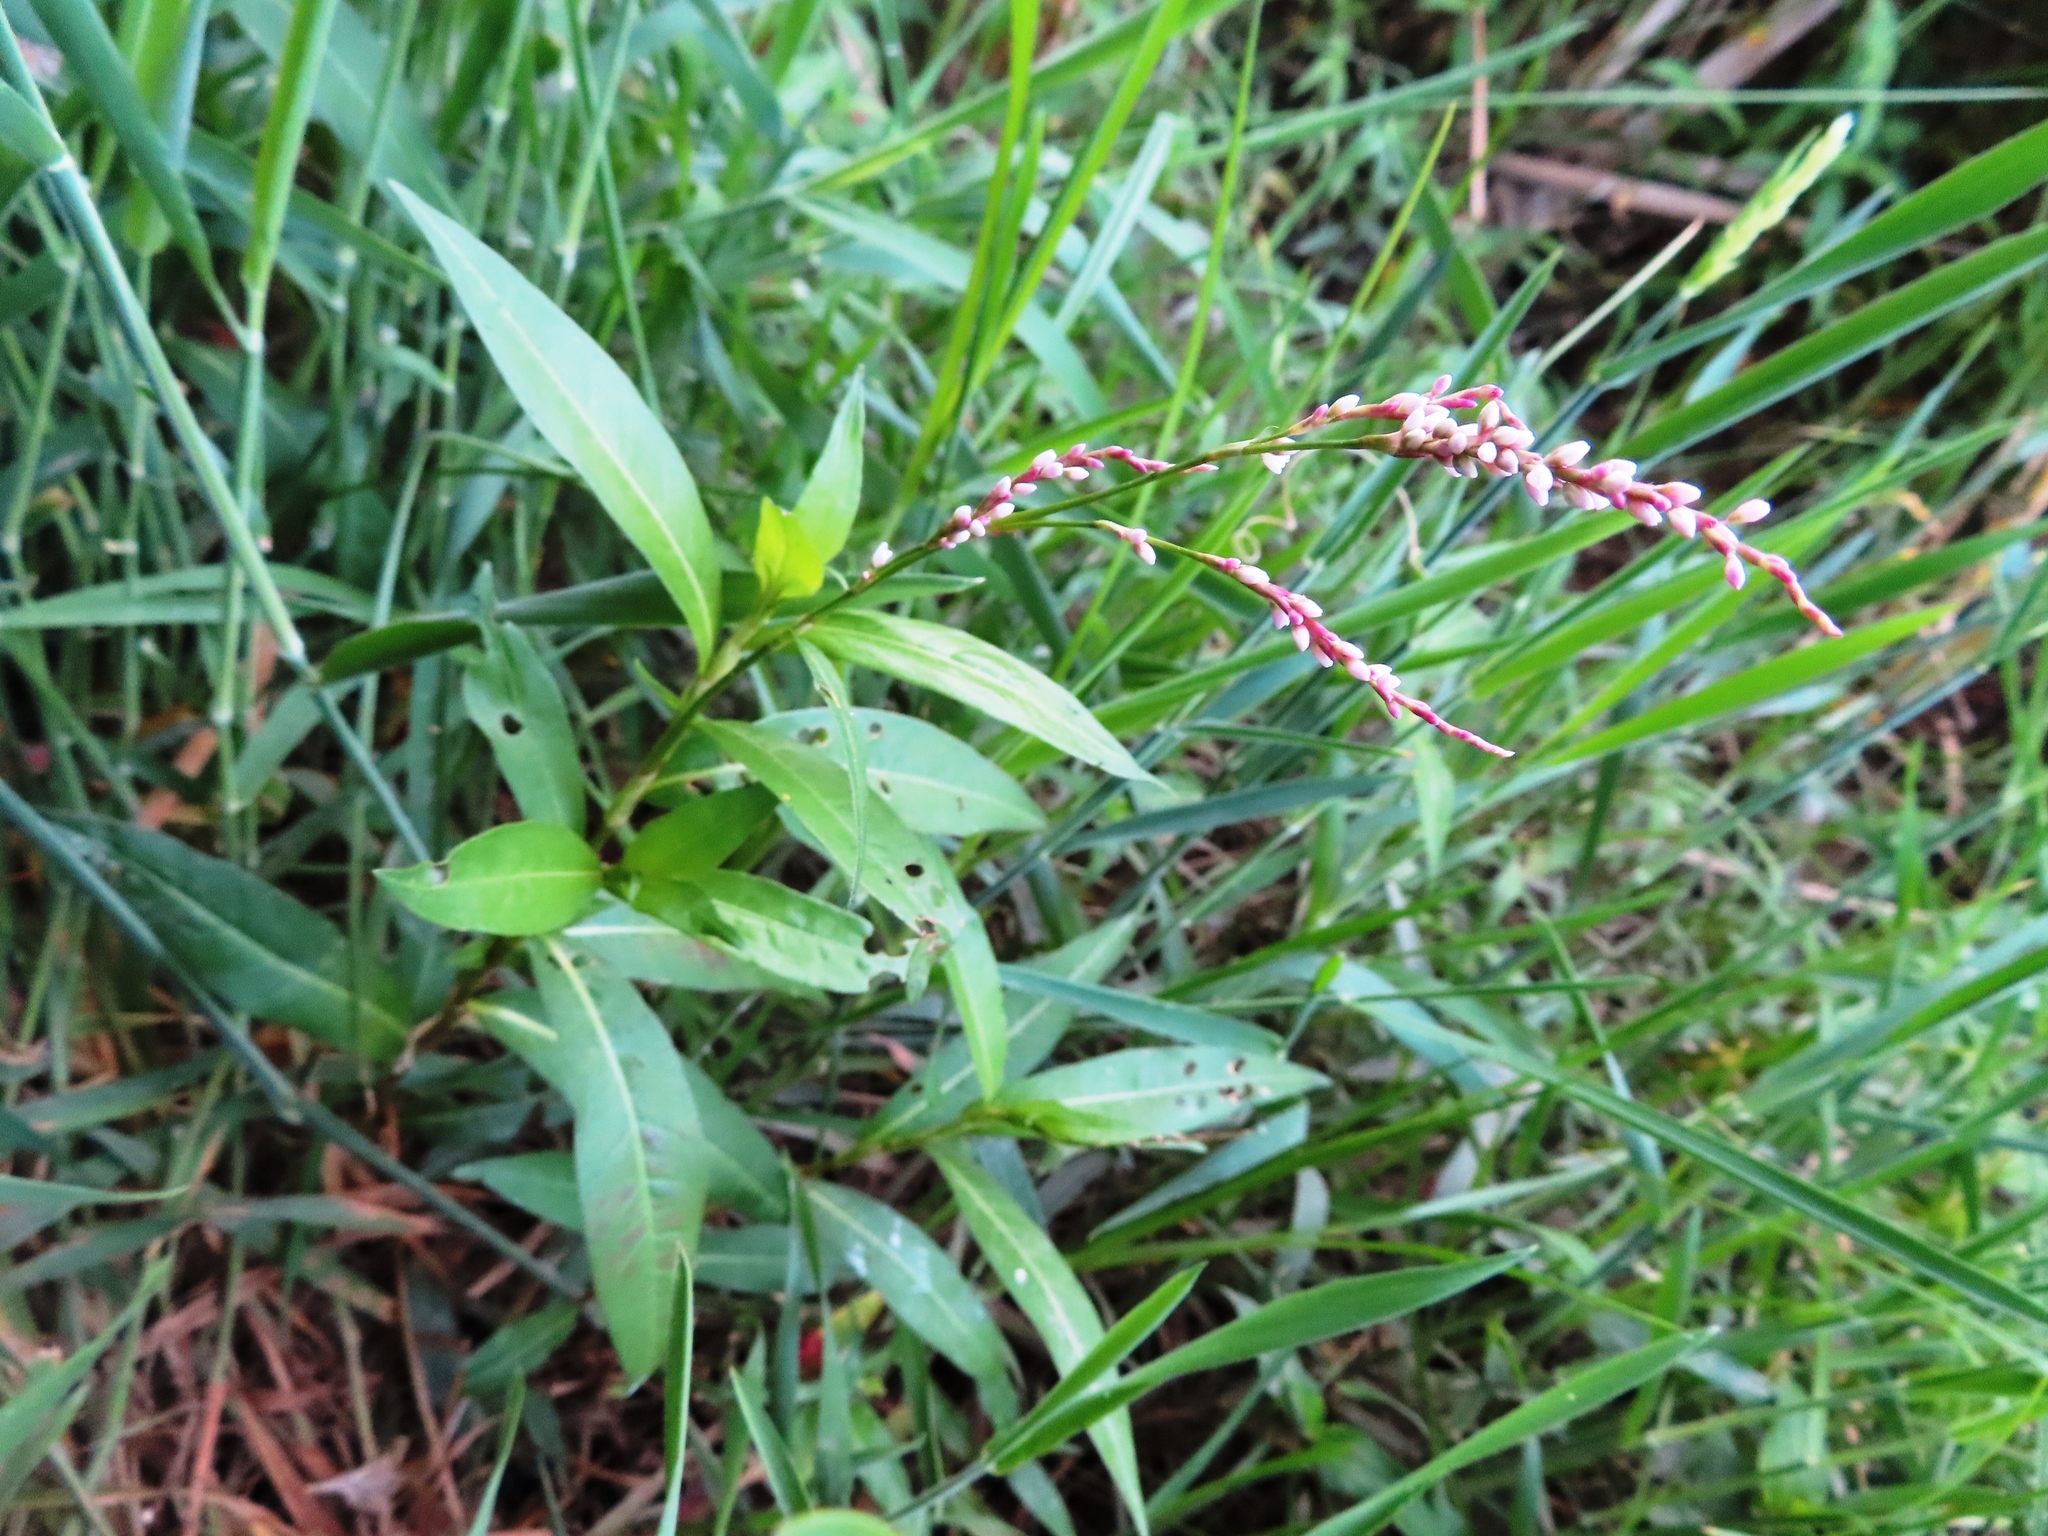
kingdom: Plantae
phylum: Tracheophyta
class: Magnoliopsida
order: Caryophyllales
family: Polygonaceae
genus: Persicaria
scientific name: Persicaria decipiens
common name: Willow-weed
